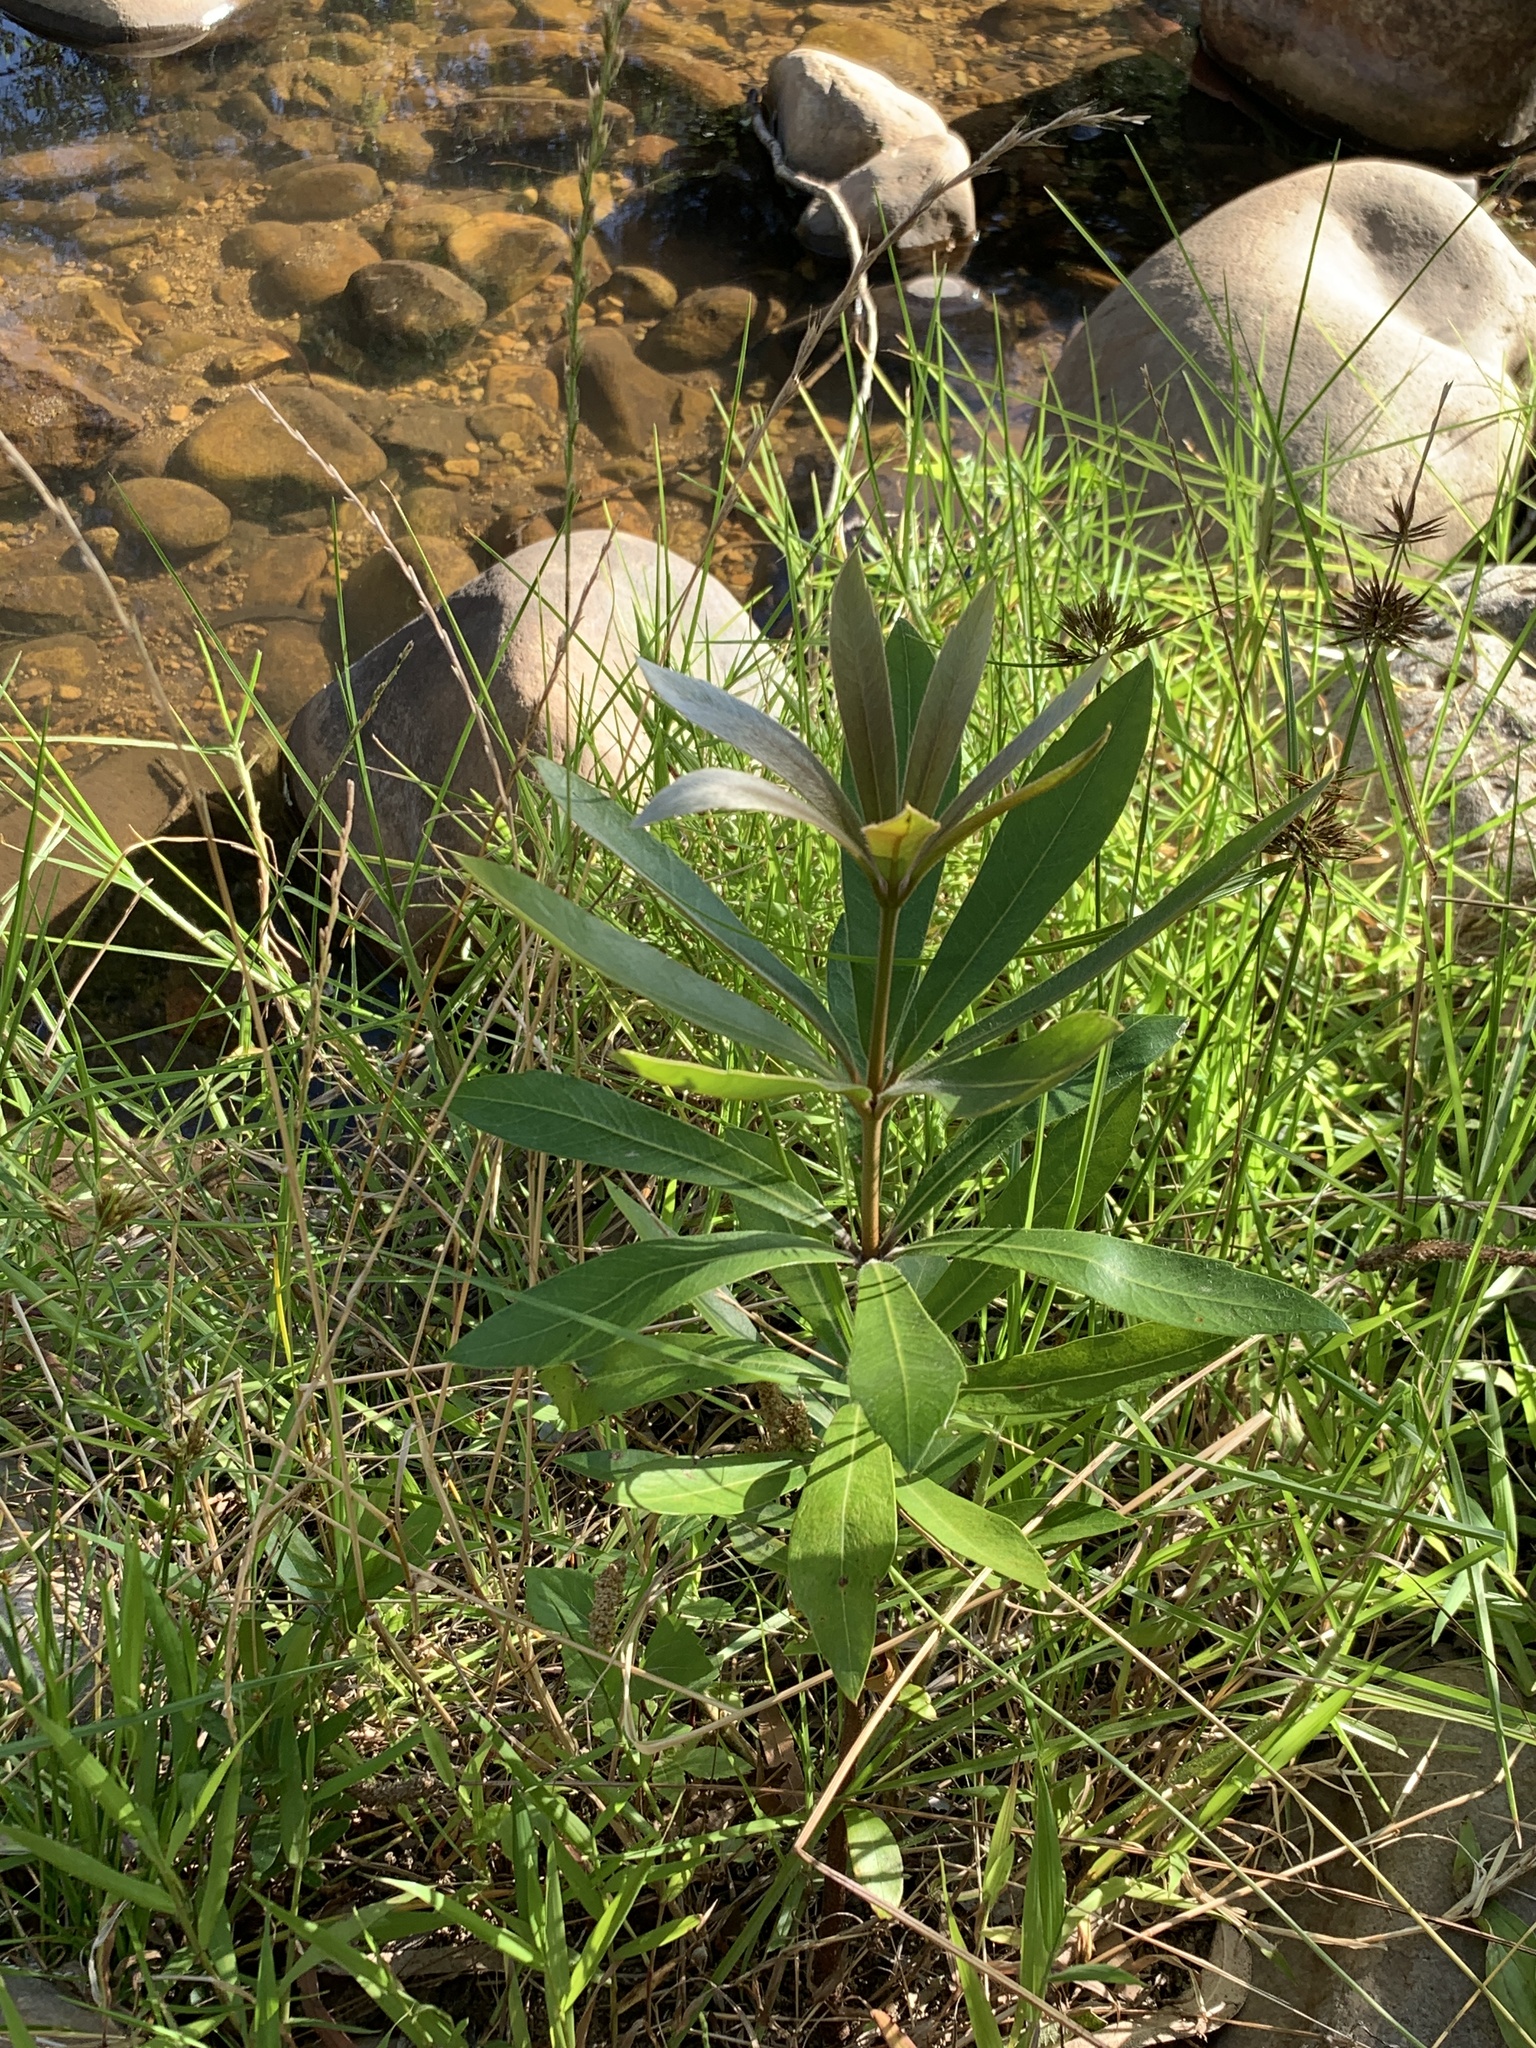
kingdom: Plantae
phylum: Tracheophyta
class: Magnoliopsida
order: Proteales
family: Proteaceae
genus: Brabejum
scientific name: Brabejum stellatifolium
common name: Wild almond
